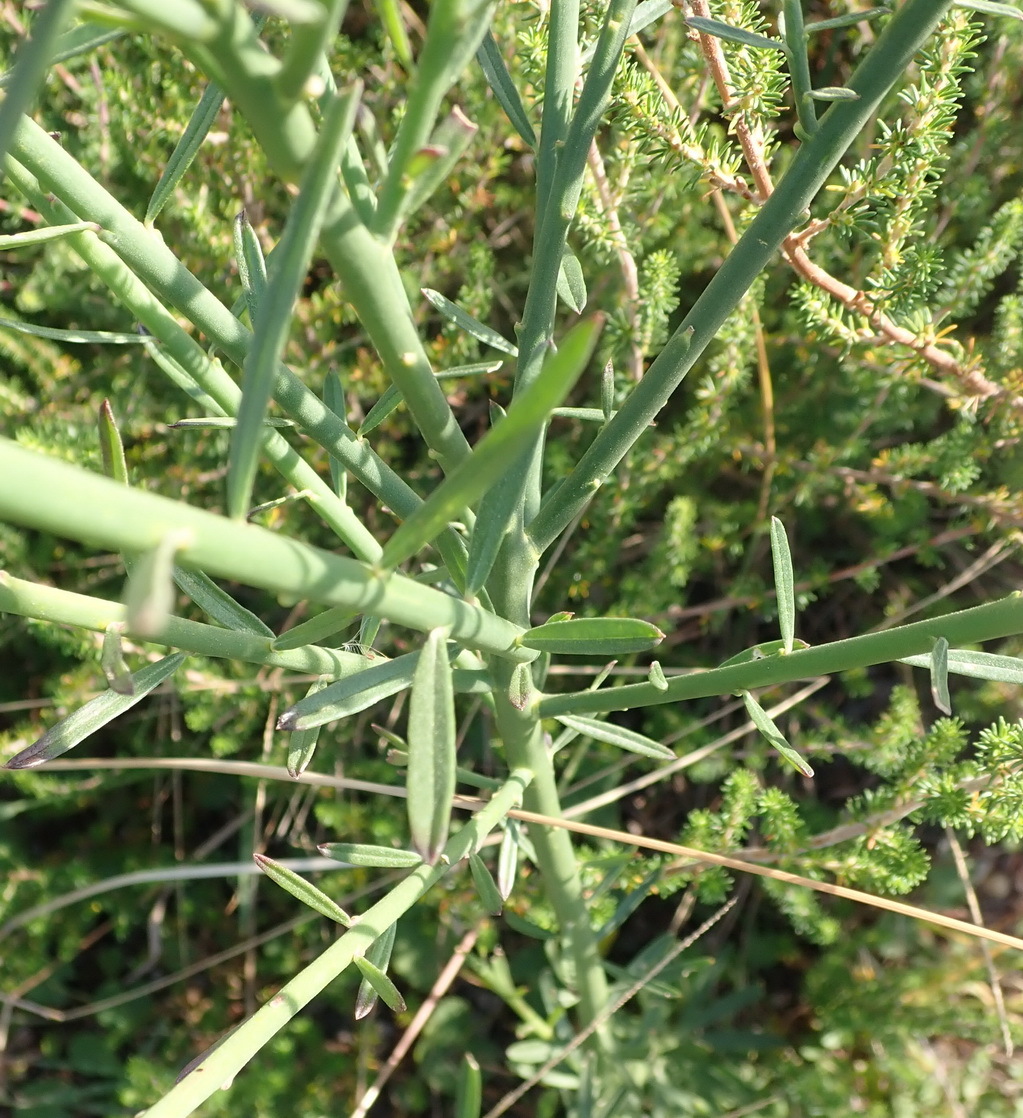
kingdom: Plantae
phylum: Tracheophyta
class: Magnoliopsida
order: Fabales
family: Polygalaceae
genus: Polygala
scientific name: Polygala virgata
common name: Milkwort
